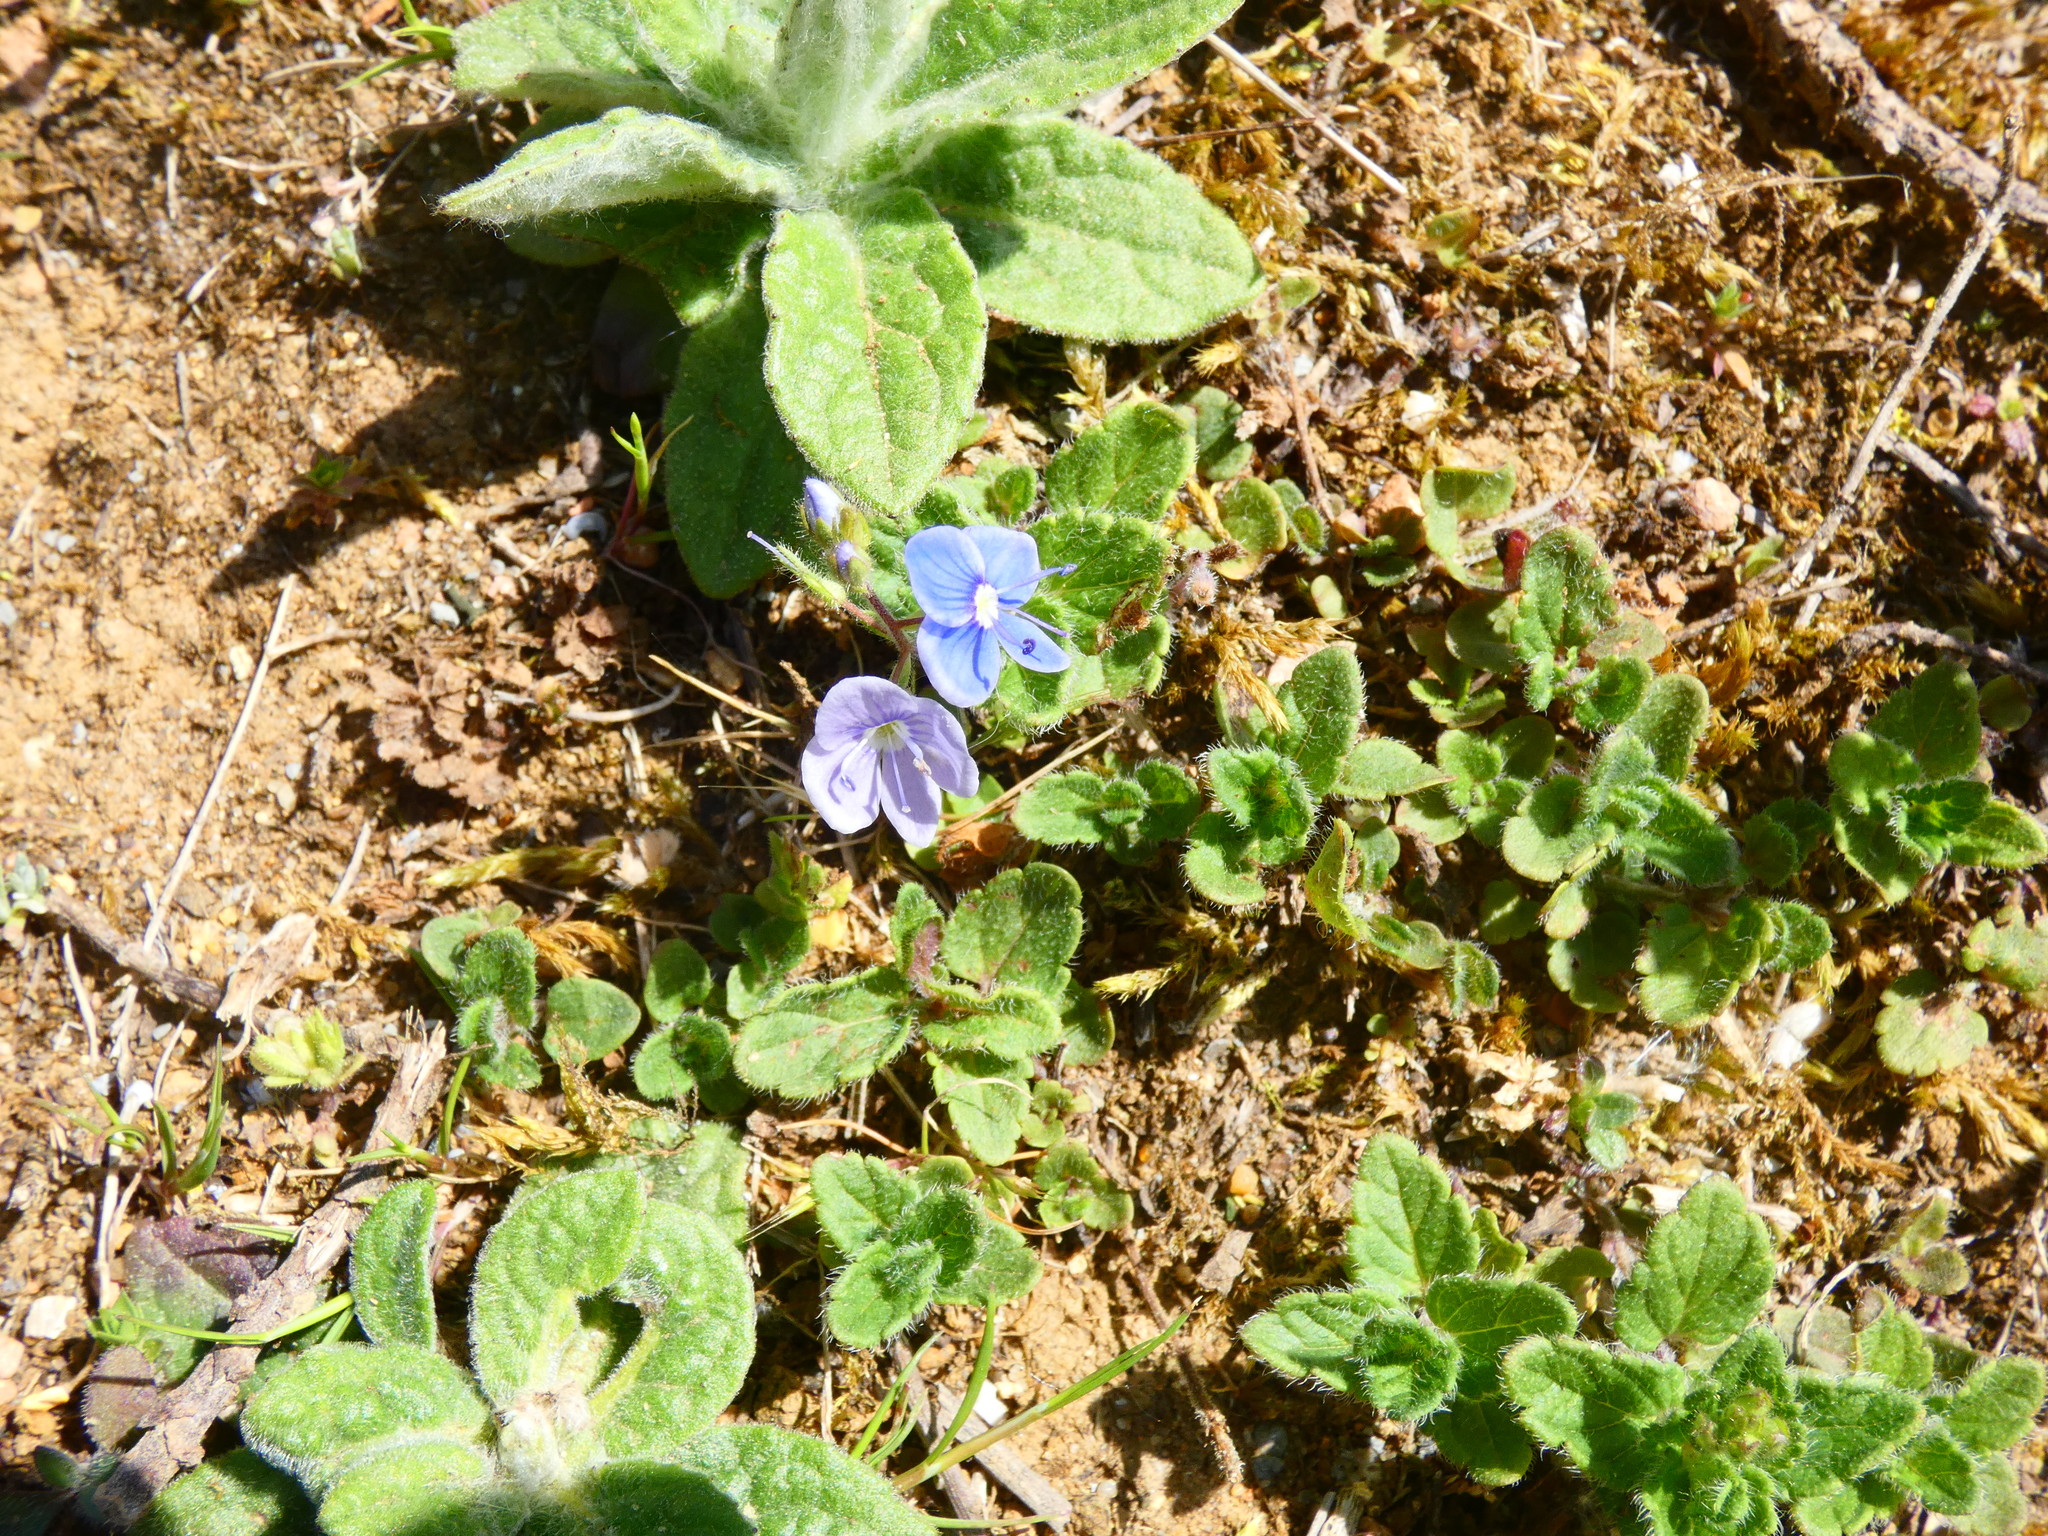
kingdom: Plantae
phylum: Tracheophyta
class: Magnoliopsida
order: Lamiales
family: Plantaginaceae
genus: Veronica
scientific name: Veronica chamaedrys
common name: Germander speedwell
